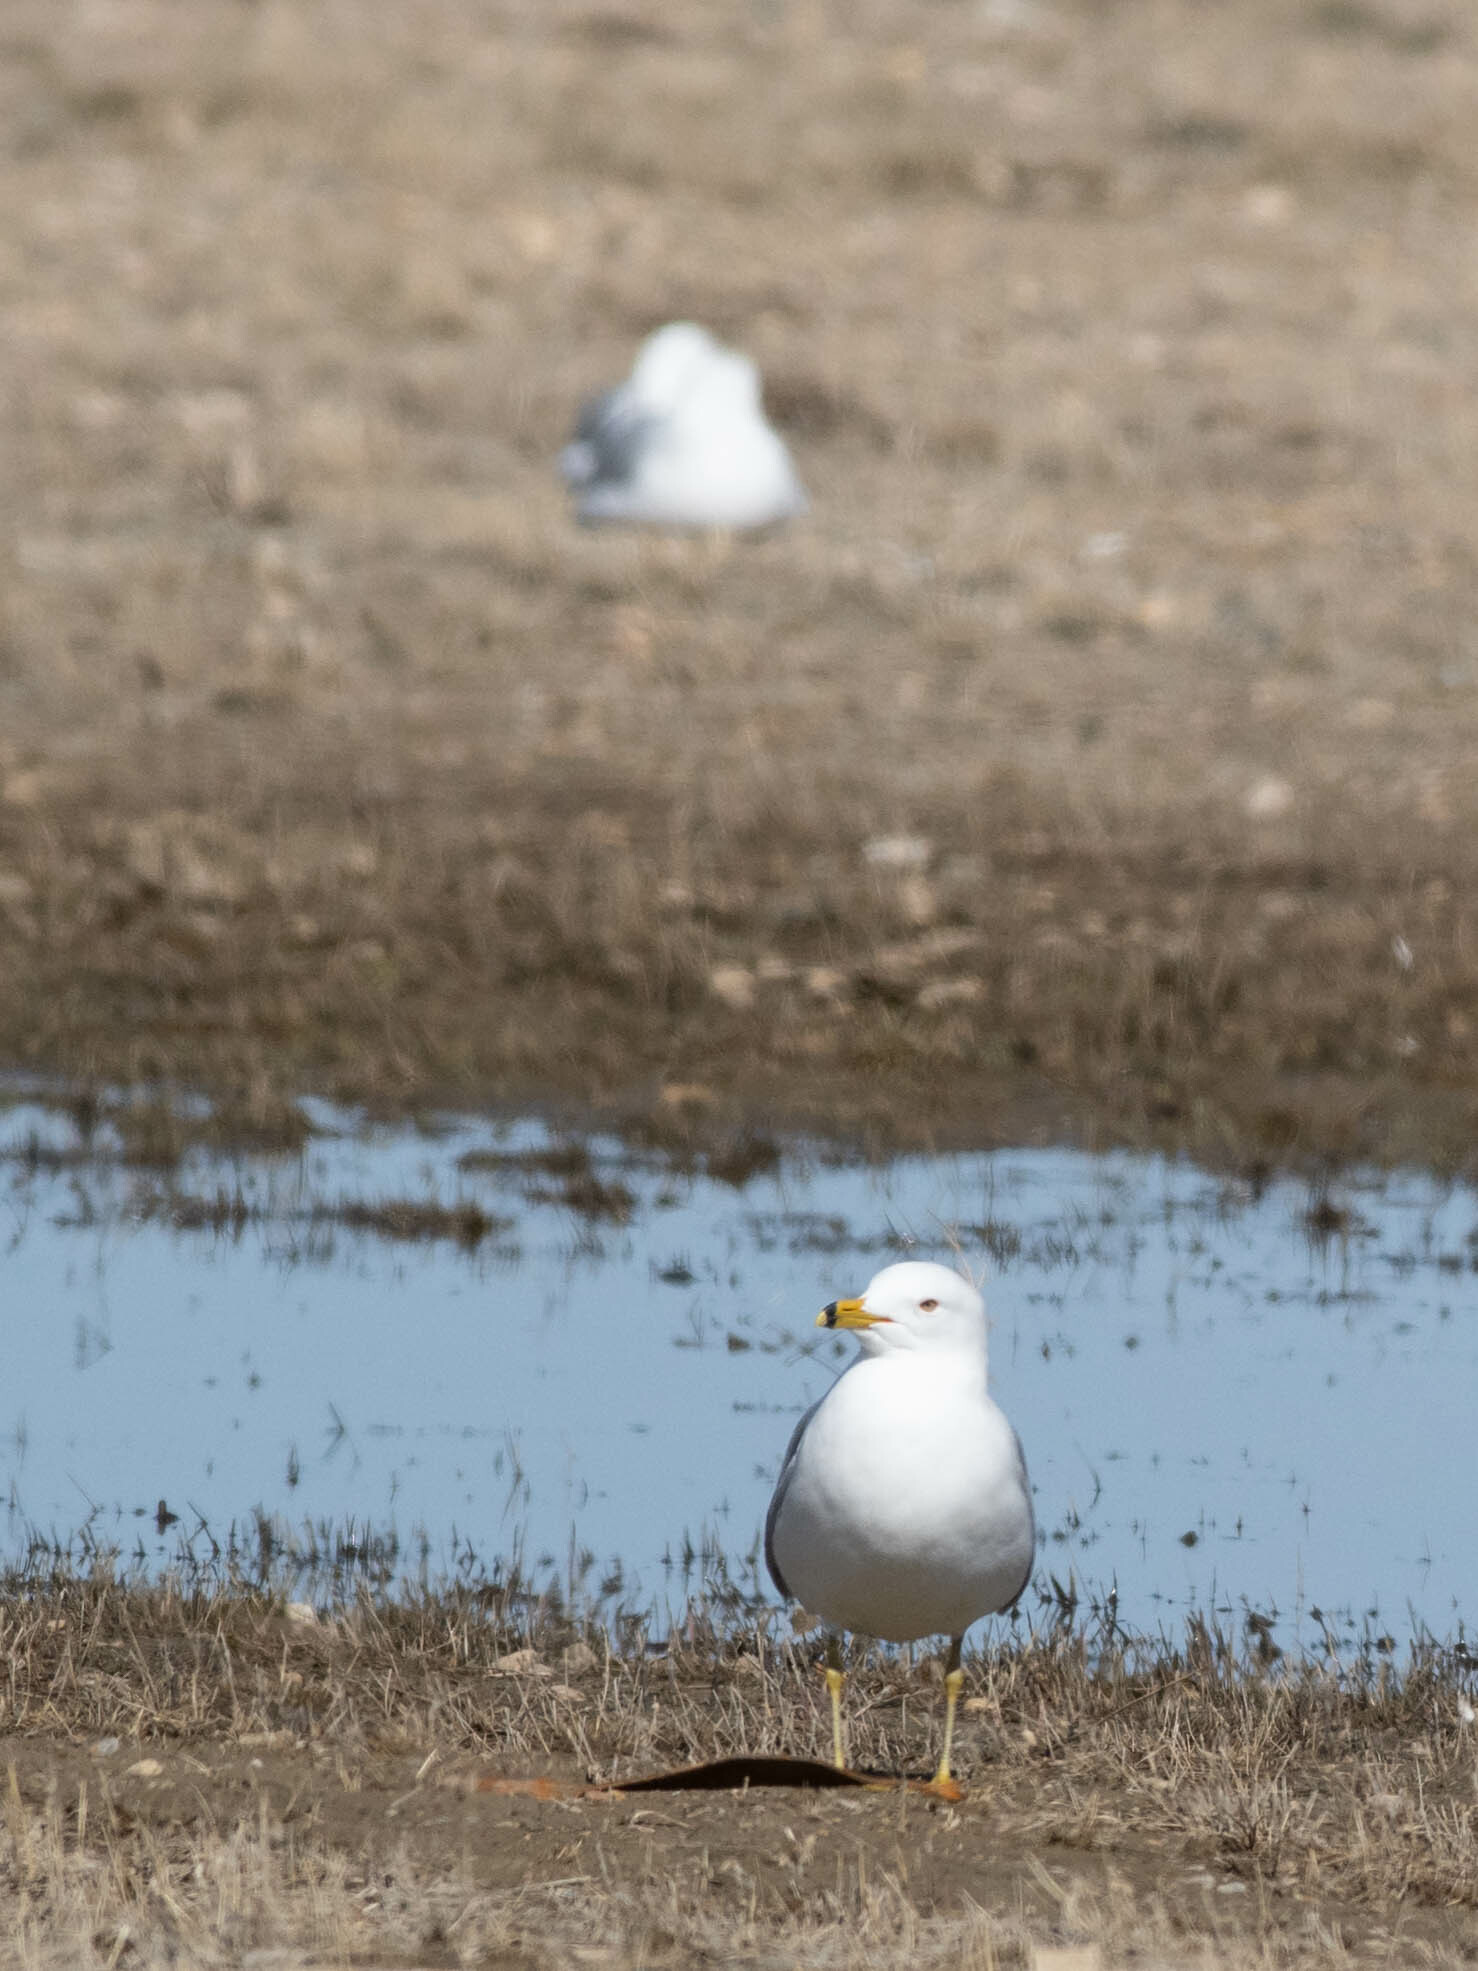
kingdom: Animalia
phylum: Chordata
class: Aves
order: Charadriiformes
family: Laridae
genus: Larus
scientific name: Larus delawarensis
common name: Ring-billed gull
